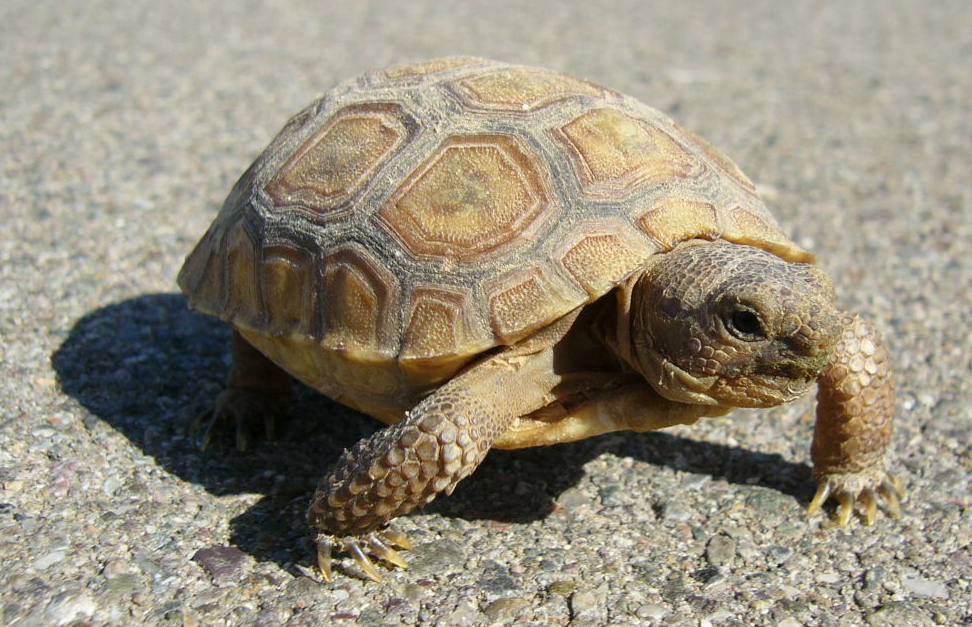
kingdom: Animalia
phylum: Chordata
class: Testudines
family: Testudinidae
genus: Gopherus
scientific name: Gopherus agassizii
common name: Mojave desert tortoise
